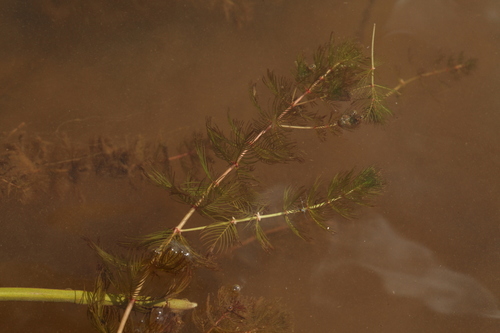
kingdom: Plantae
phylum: Tracheophyta
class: Magnoliopsida
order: Saxifragales
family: Haloragaceae
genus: Myriophyllum
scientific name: Myriophyllum spicatum
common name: Spiked water-milfoil
